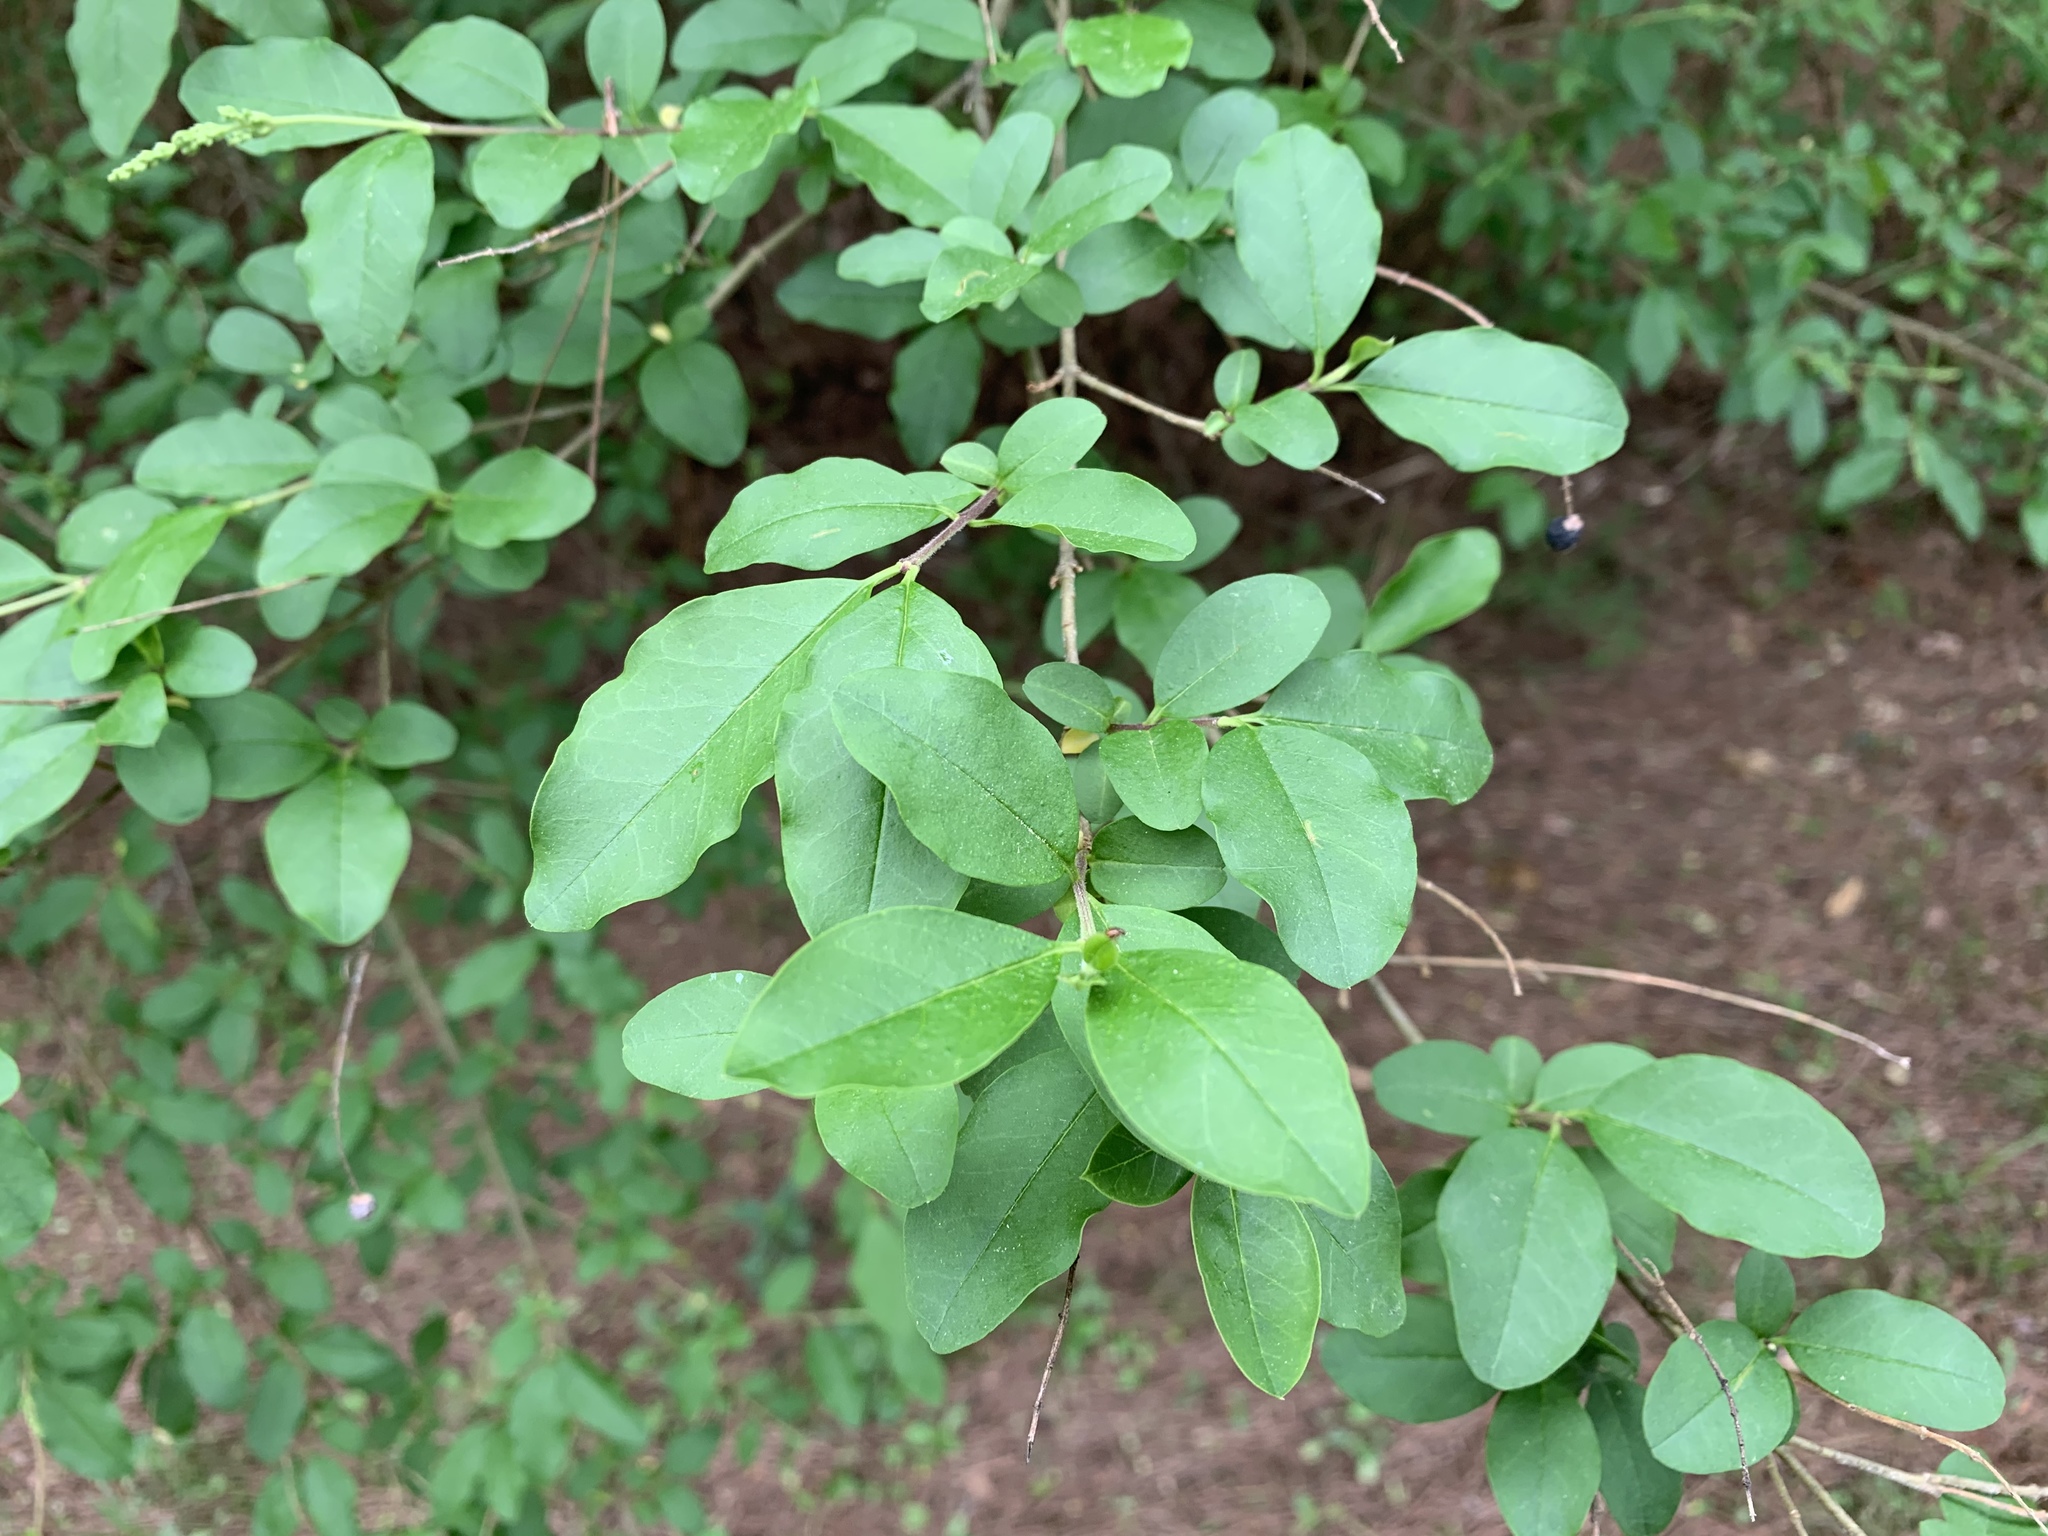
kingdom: Plantae
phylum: Tracheophyta
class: Magnoliopsida
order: Lamiales
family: Oleaceae
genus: Ligustrum
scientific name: Ligustrum sinense
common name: Chinese privet
